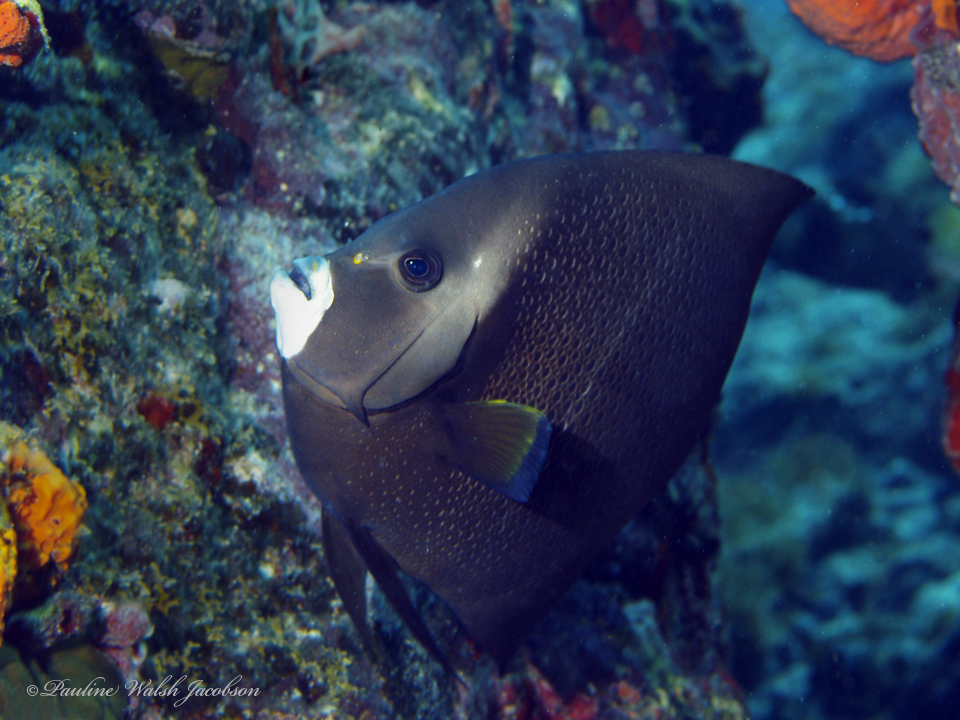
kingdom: Animalia
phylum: Chordata
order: Perciformes
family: Pomacanthidae
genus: Pomacanthus
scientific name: Pomacanthus arcuatus
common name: Gray angelfish
